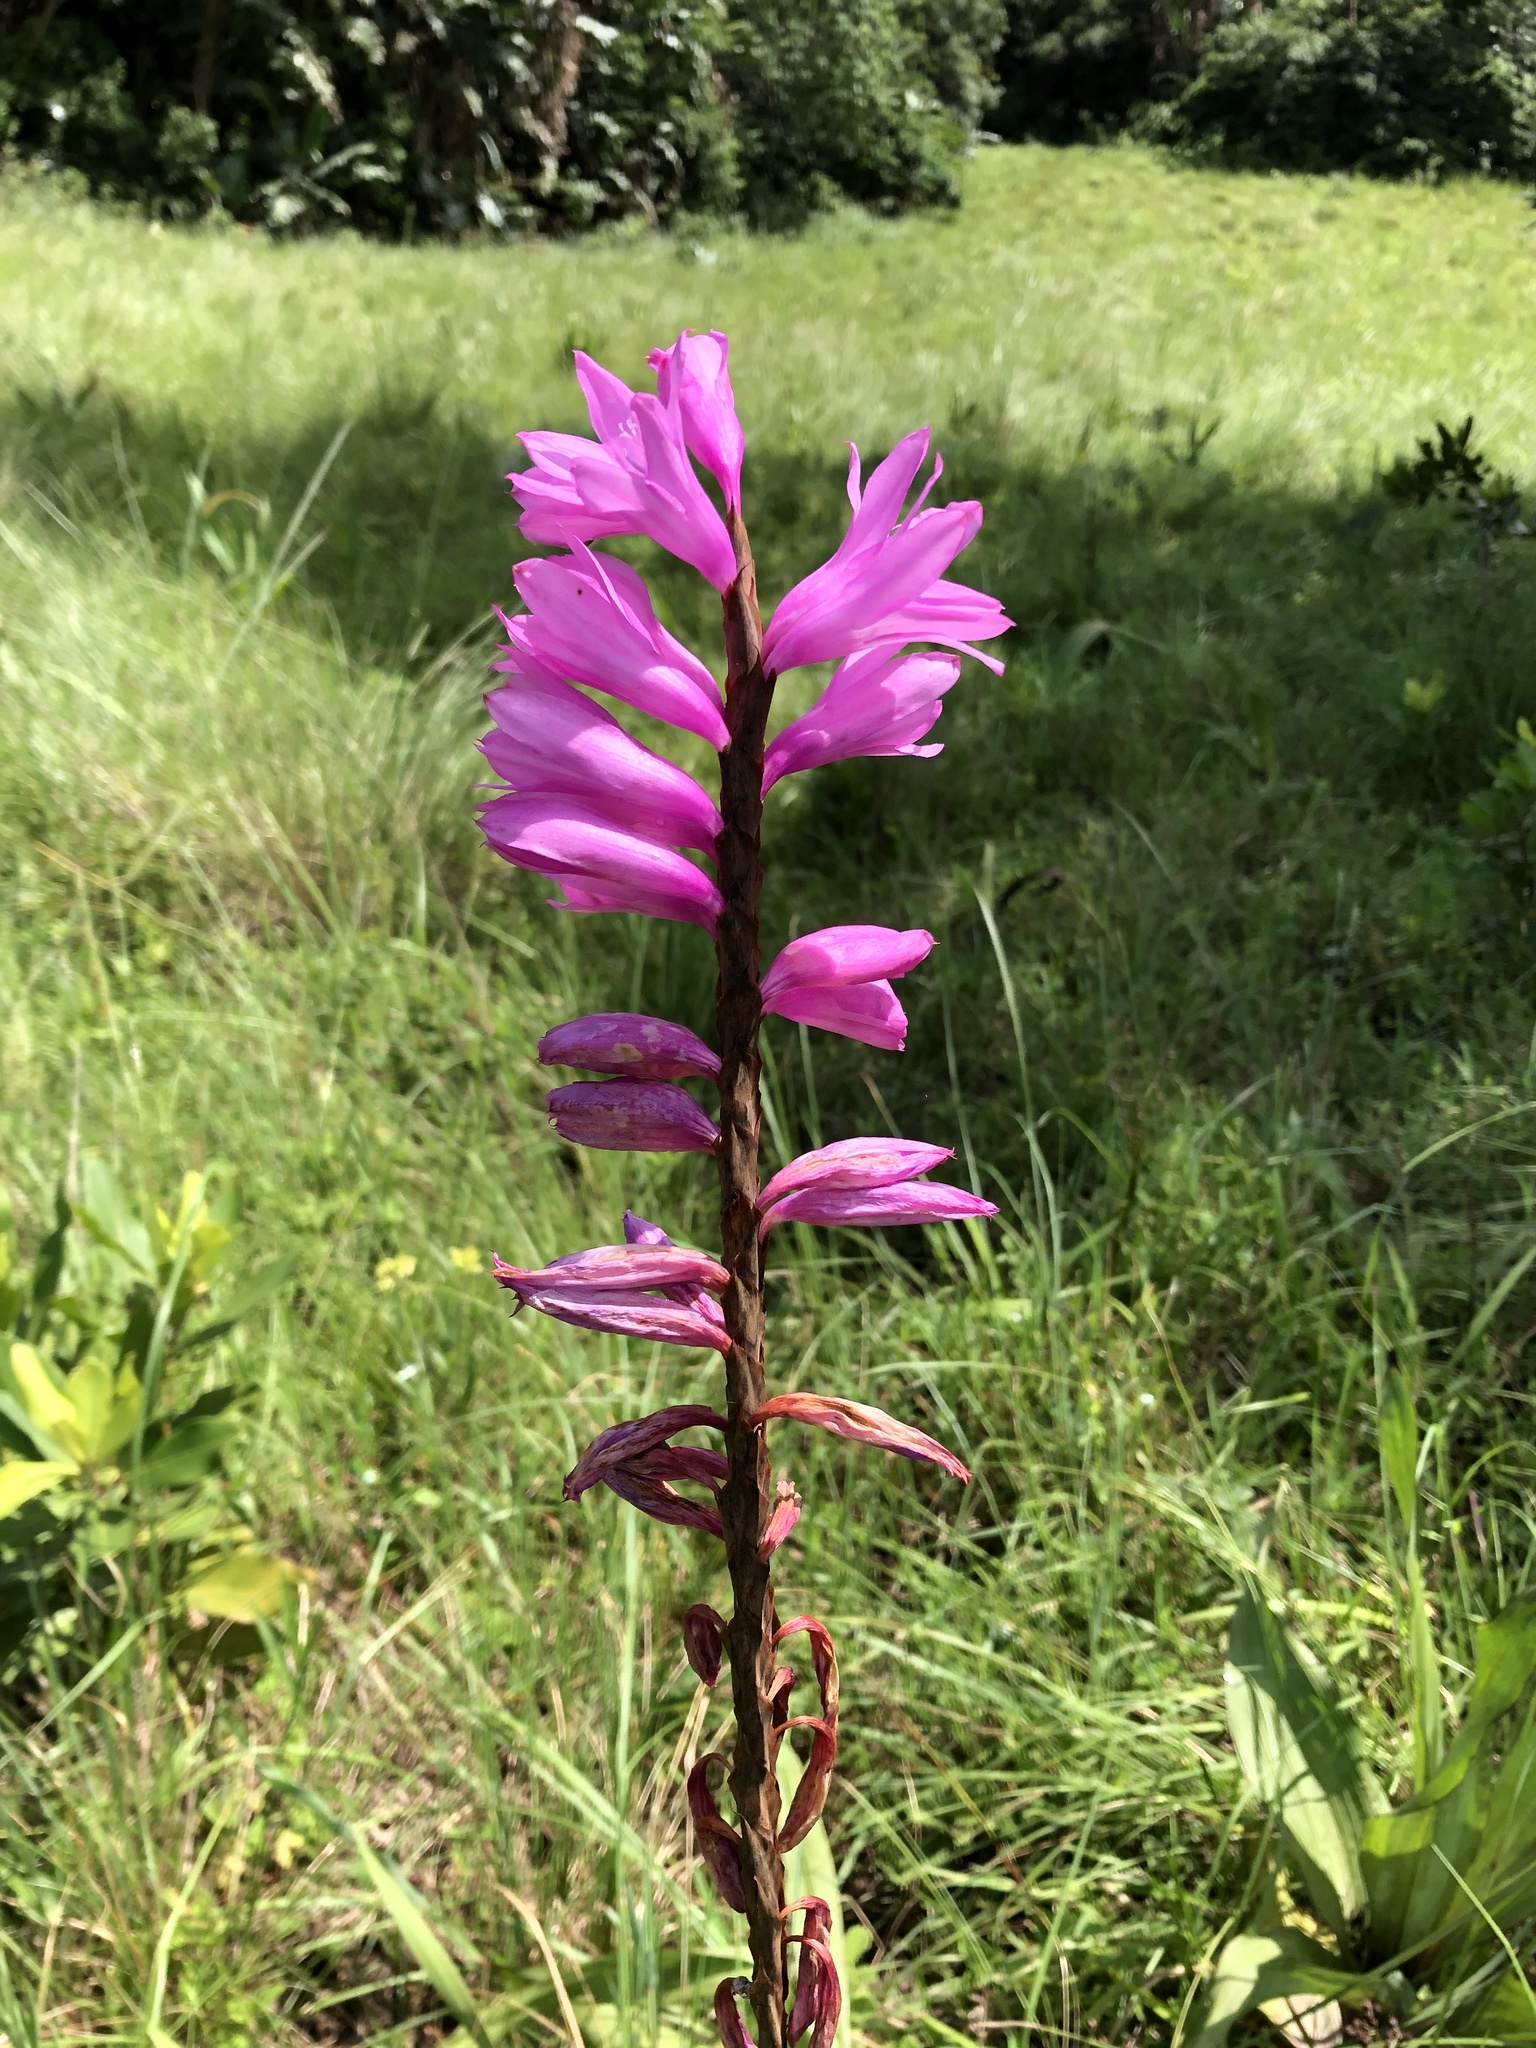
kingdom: Plantae
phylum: Tracheophyta
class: Liliopsida
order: Asparagales
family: Iridaceae
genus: Watsonia
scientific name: Watsonia densiflora
